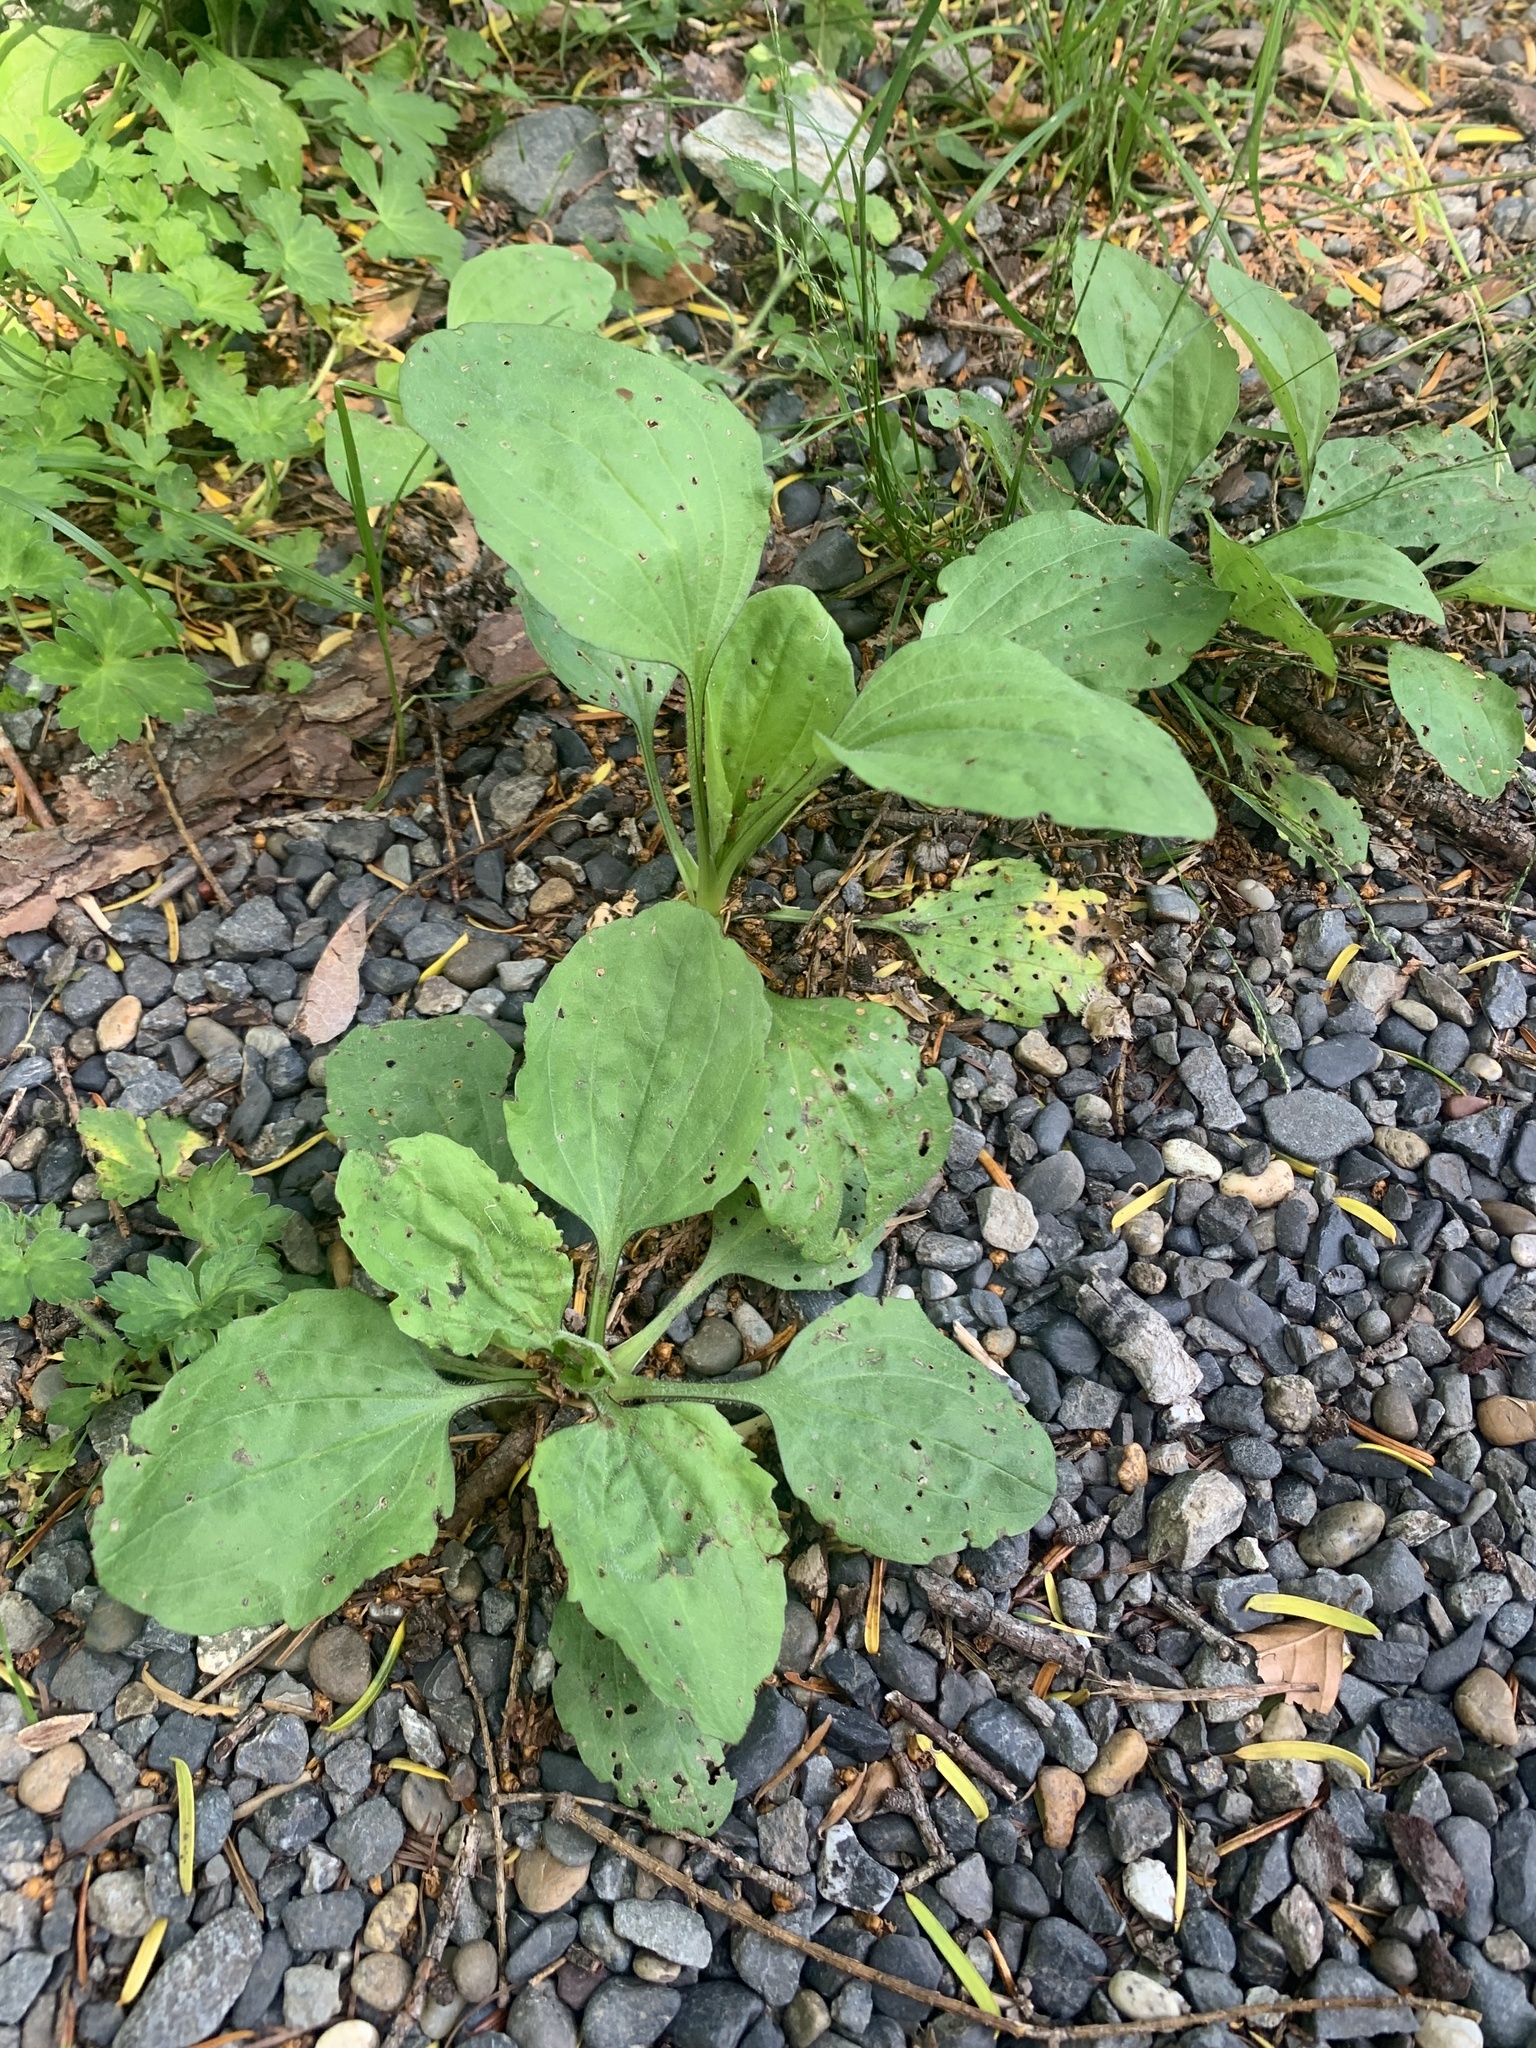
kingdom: Plantae
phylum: Tracheophyta
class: Magnoliopsida
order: Lamiales
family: Plantaginaceae
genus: Plantago
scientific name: Plantago asiatica
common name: Psyllium
